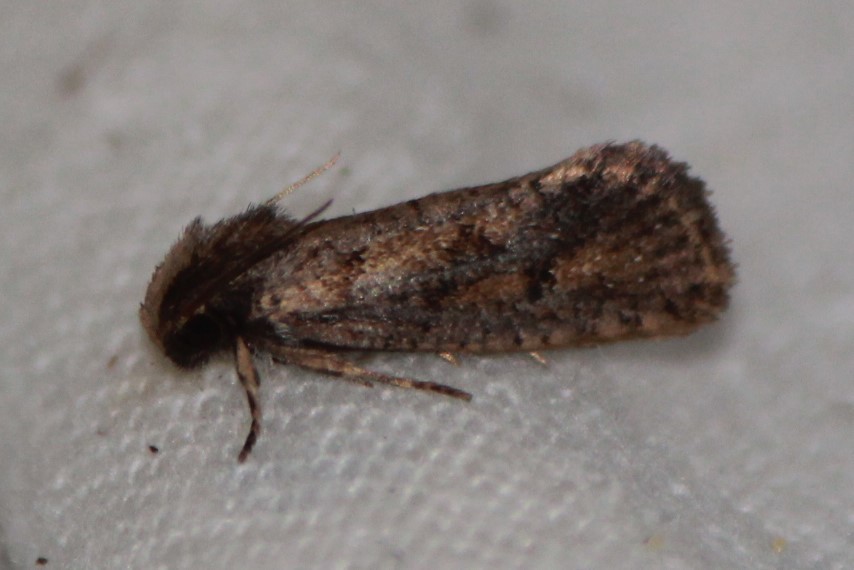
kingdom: Animalia
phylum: Arthropoda
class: Insecta
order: Lepidoptera
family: Tineidae
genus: Acrolophus
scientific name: Acrolophus popeanella
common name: Clemens' grass tubeworm moth
